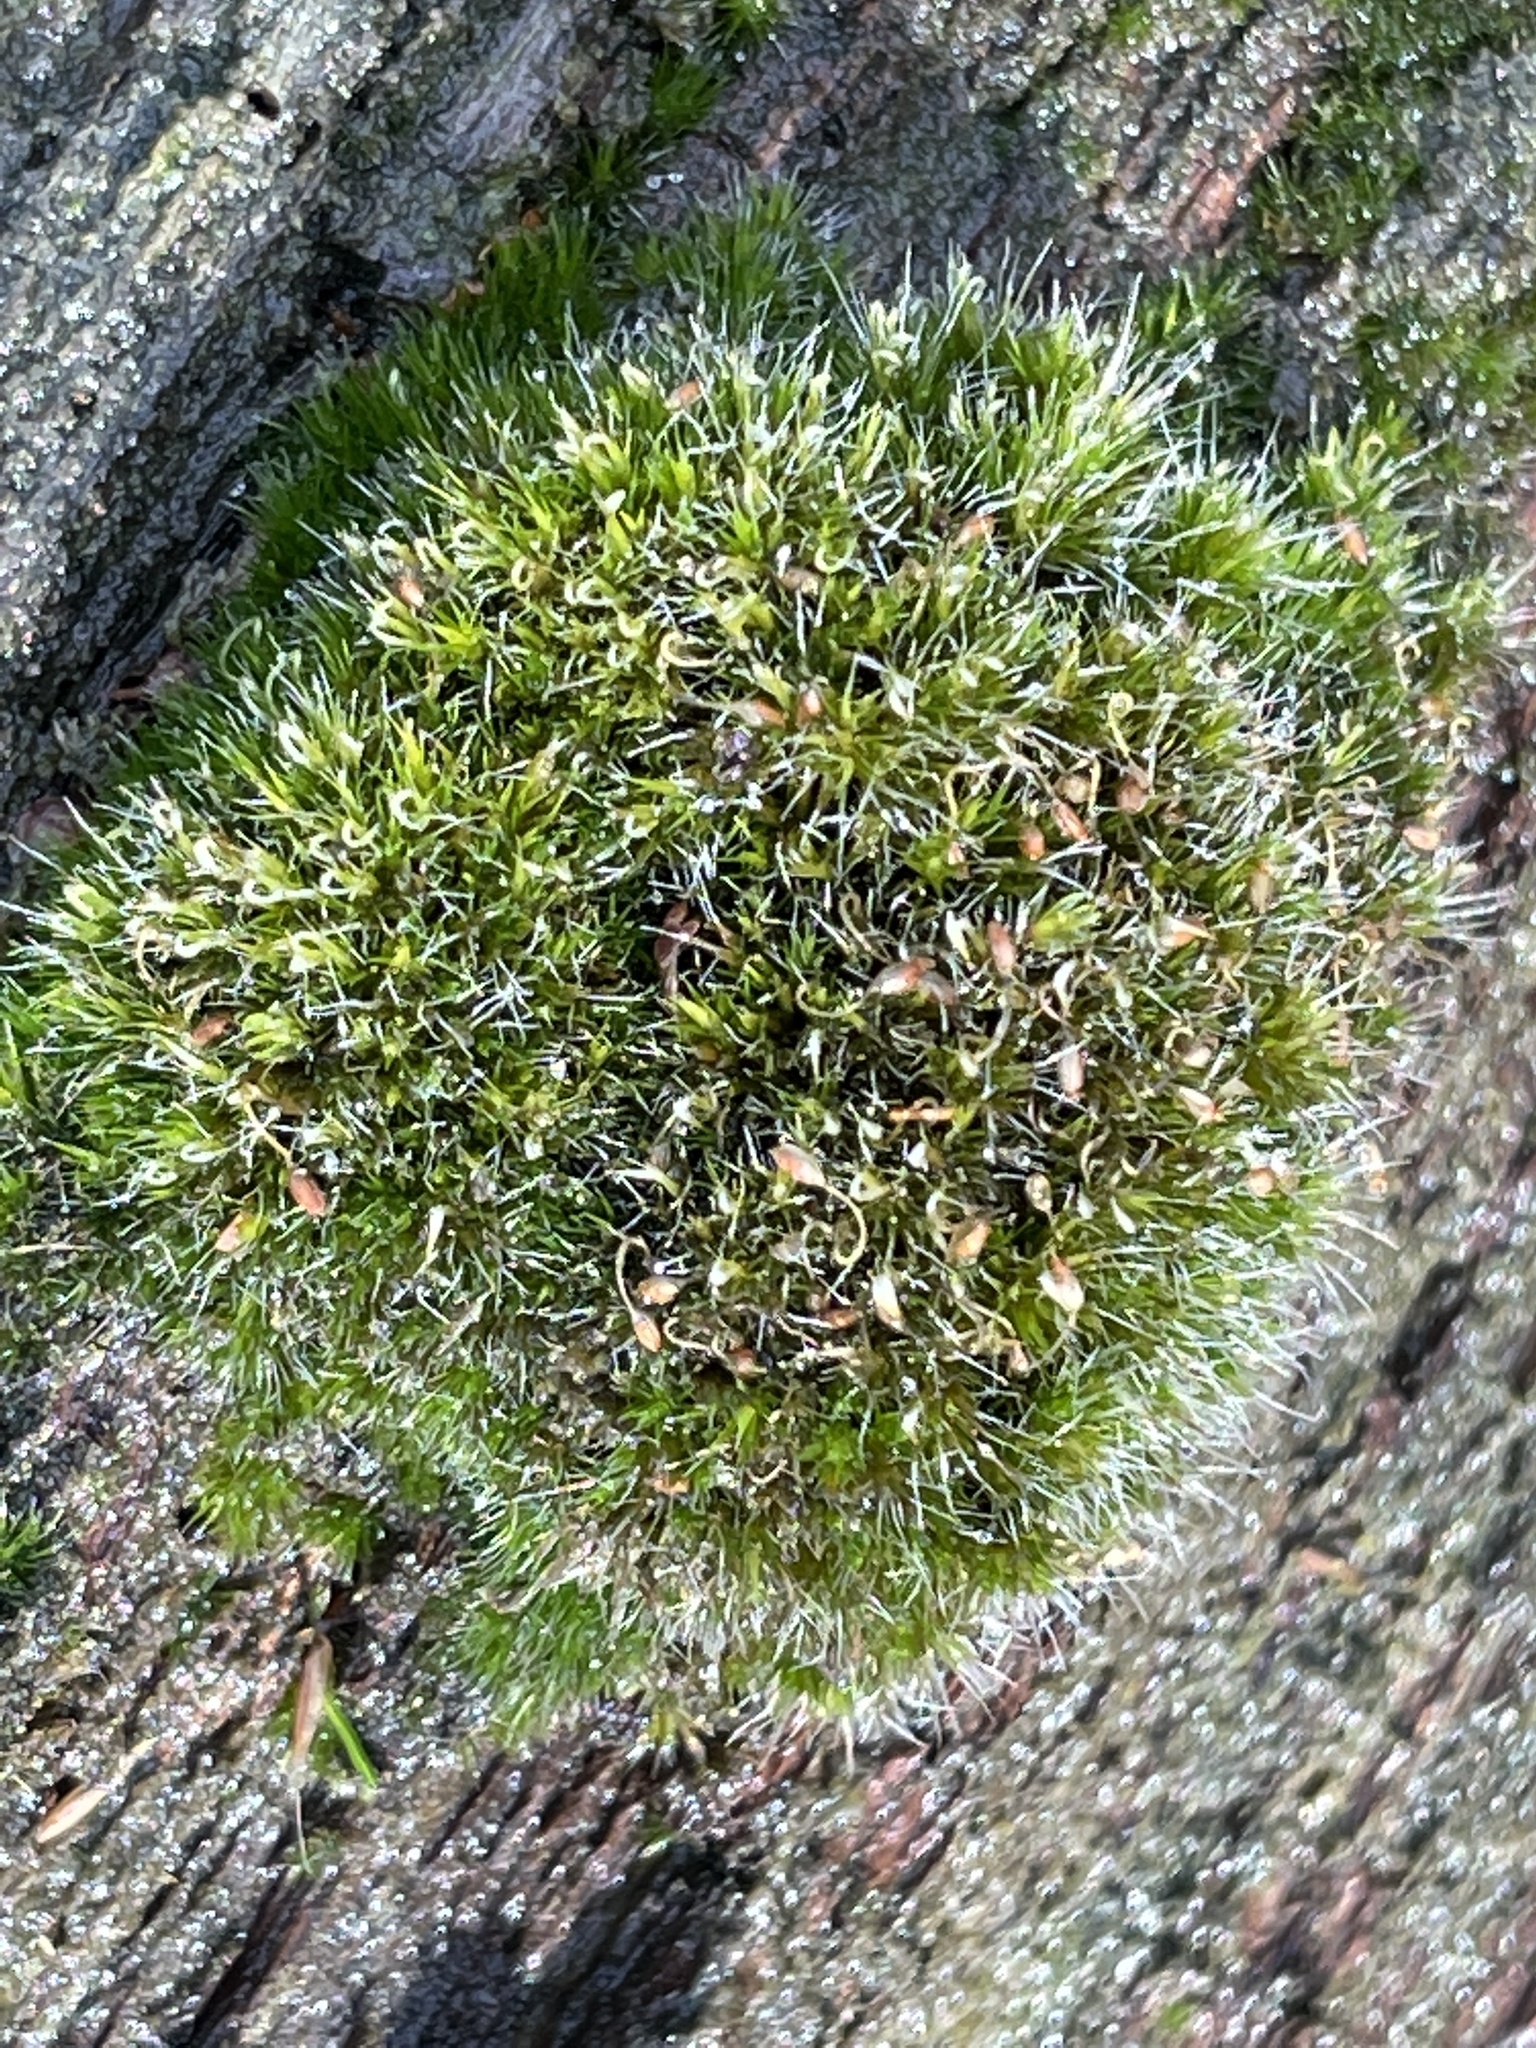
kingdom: Plantae
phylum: Bryophyta
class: Bryopsida
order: Grimmiales
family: Grimmiaceae
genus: Grimmia
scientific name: Grimmia pulvinata
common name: Grey-cushioned grimmia
